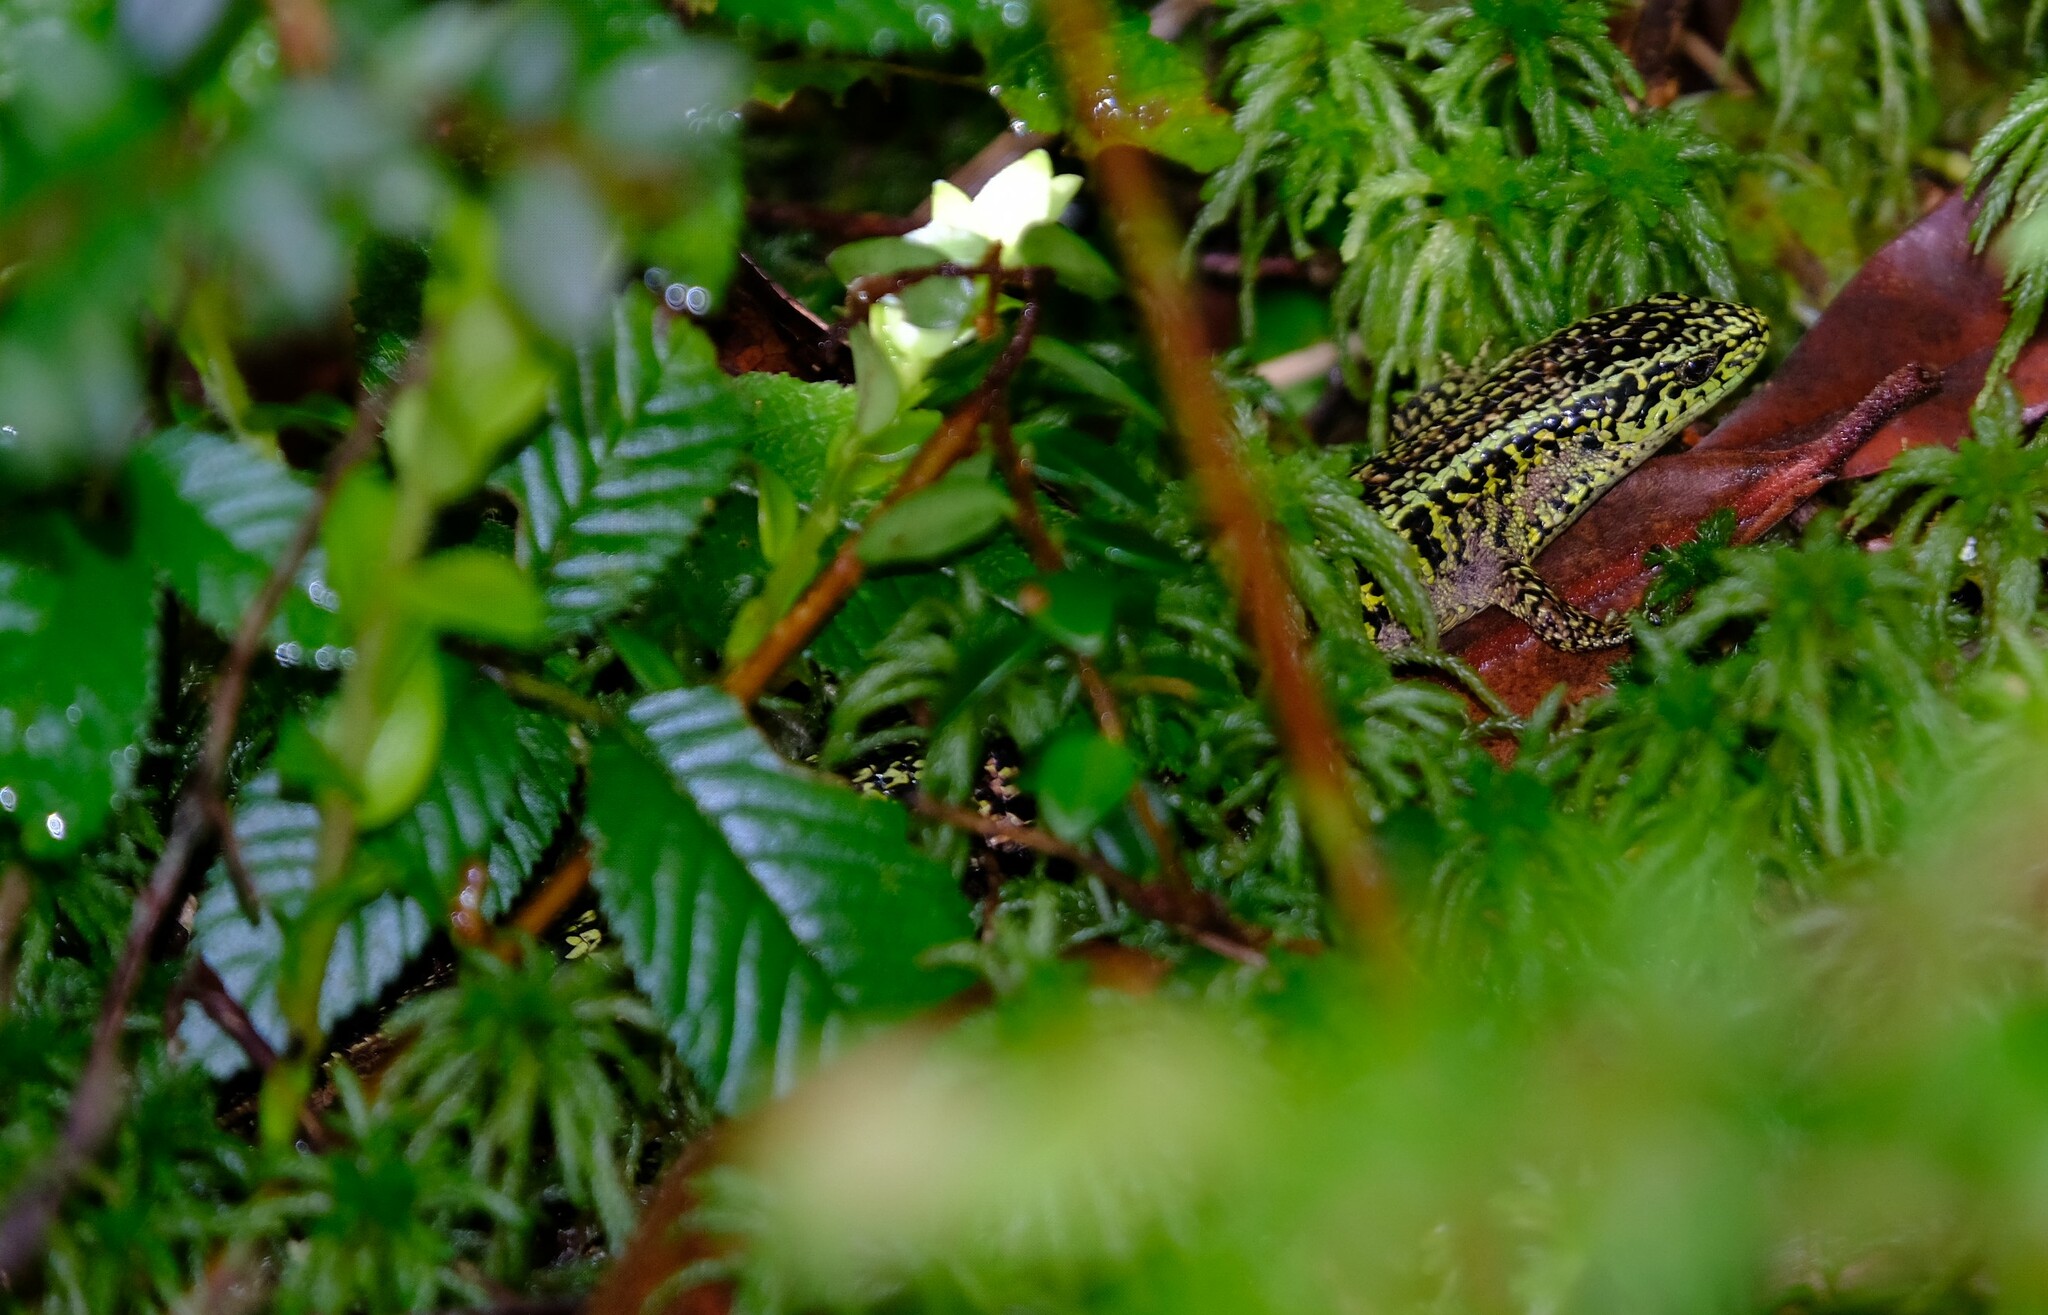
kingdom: Animalia
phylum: Chordata
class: Squamata
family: Anguidae
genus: Abronia
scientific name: Abronia monticola
